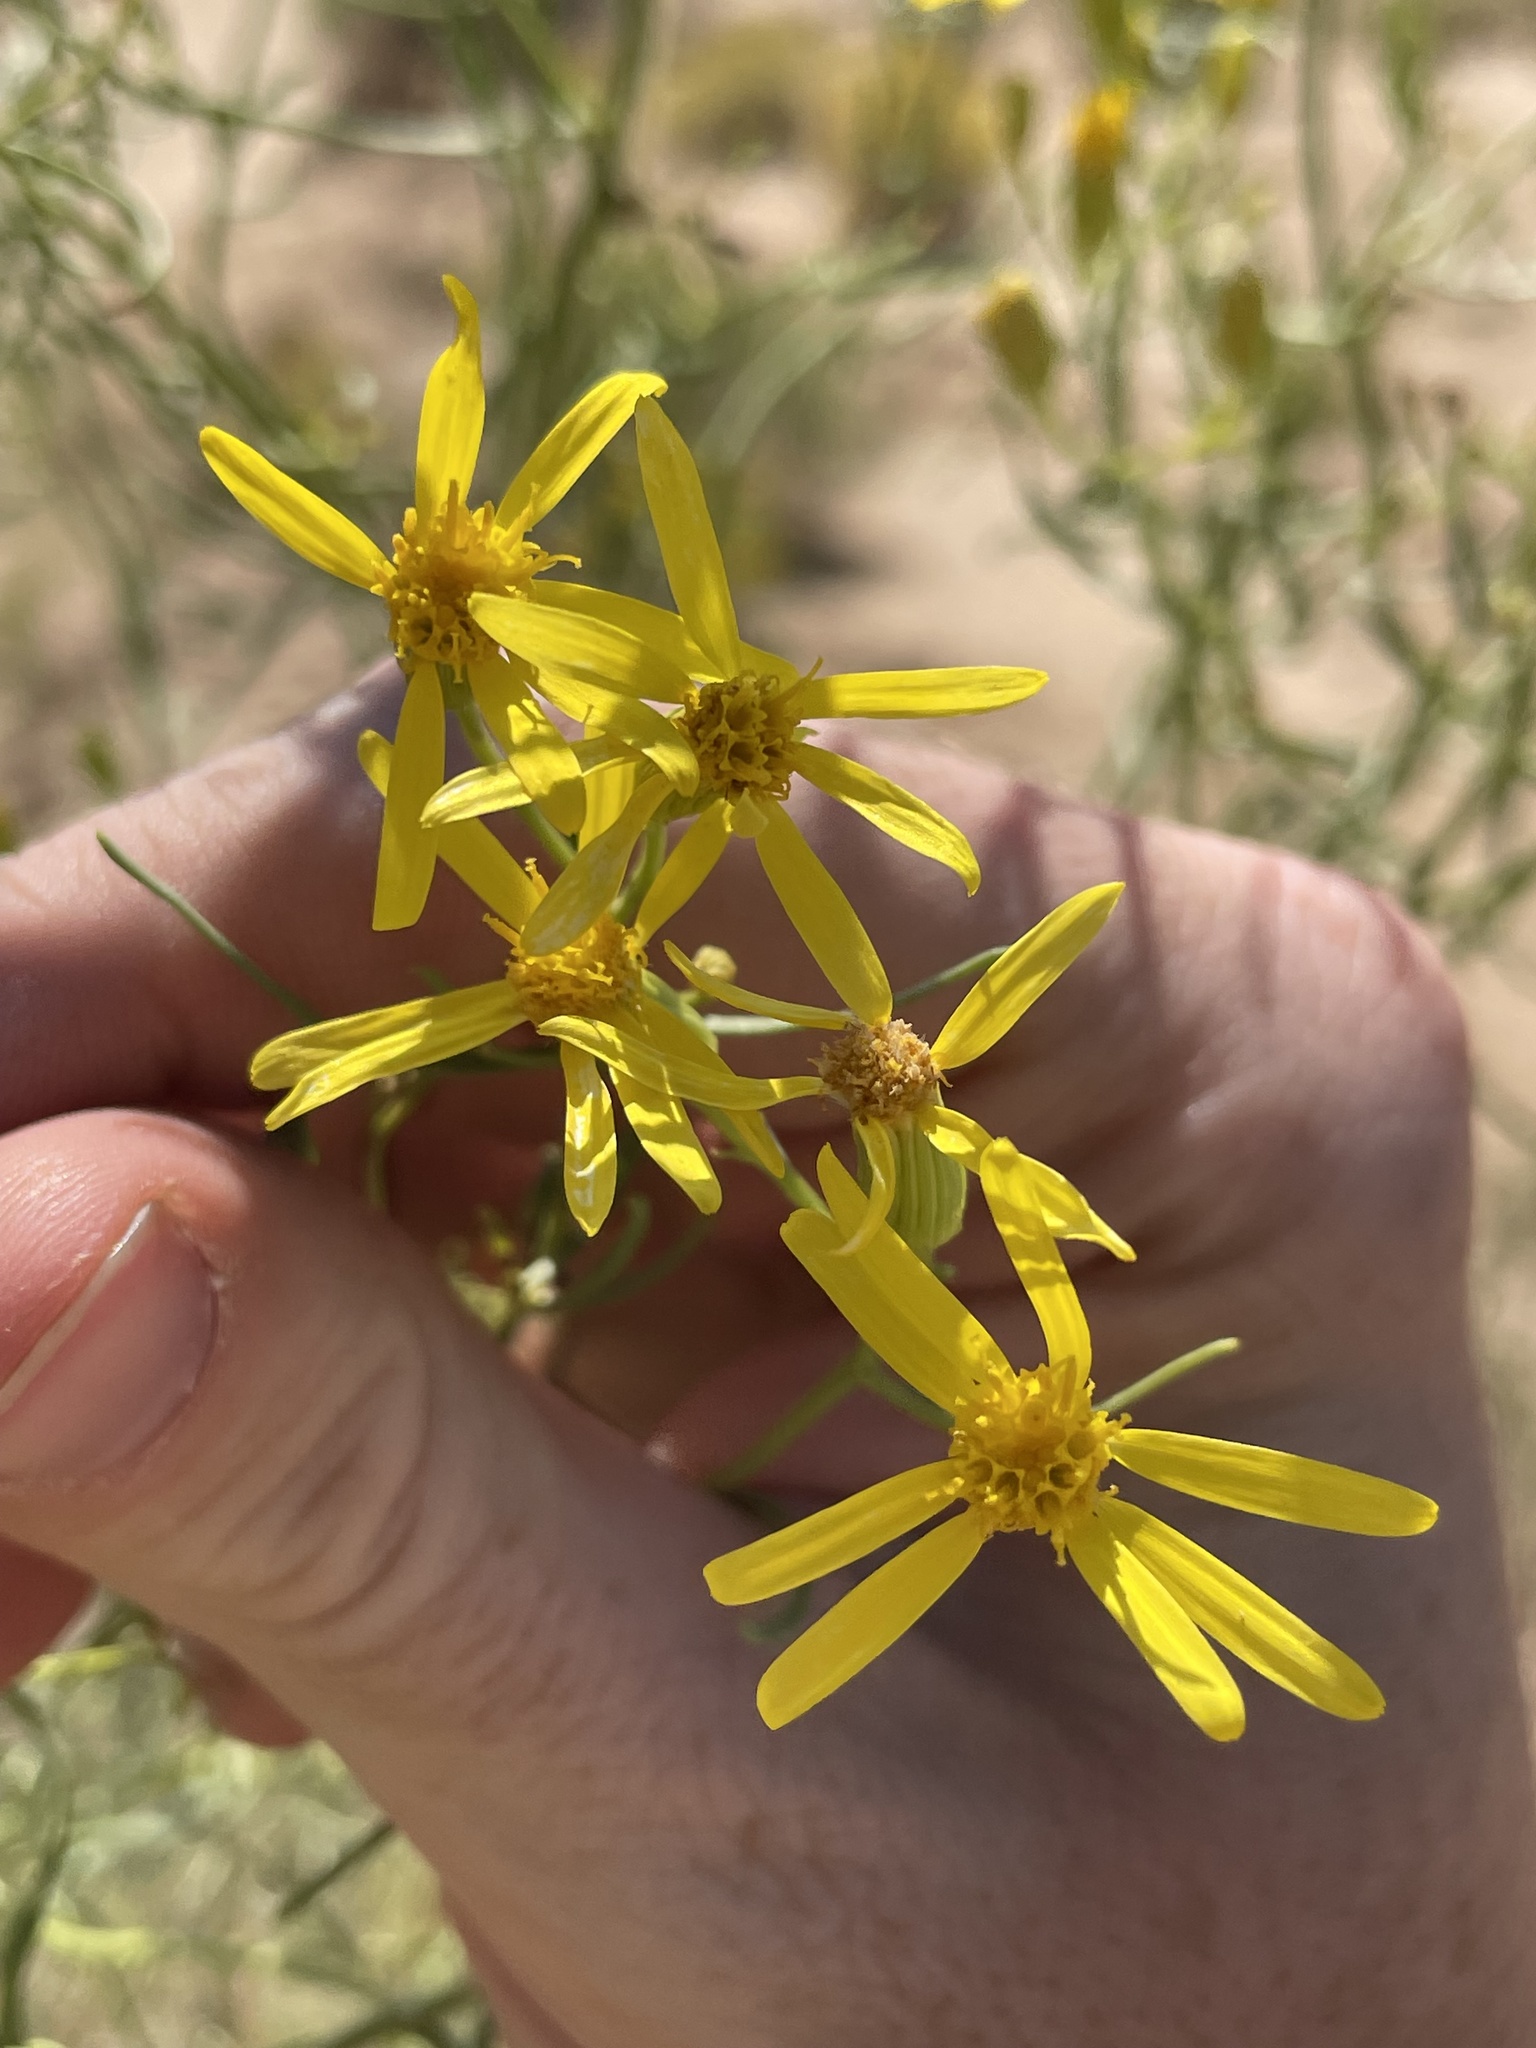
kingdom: Plantae
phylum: Tracheophyta
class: Magnoliopsida
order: Asterales
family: Asteraceae
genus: Senecio
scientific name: Senecio spartioides
